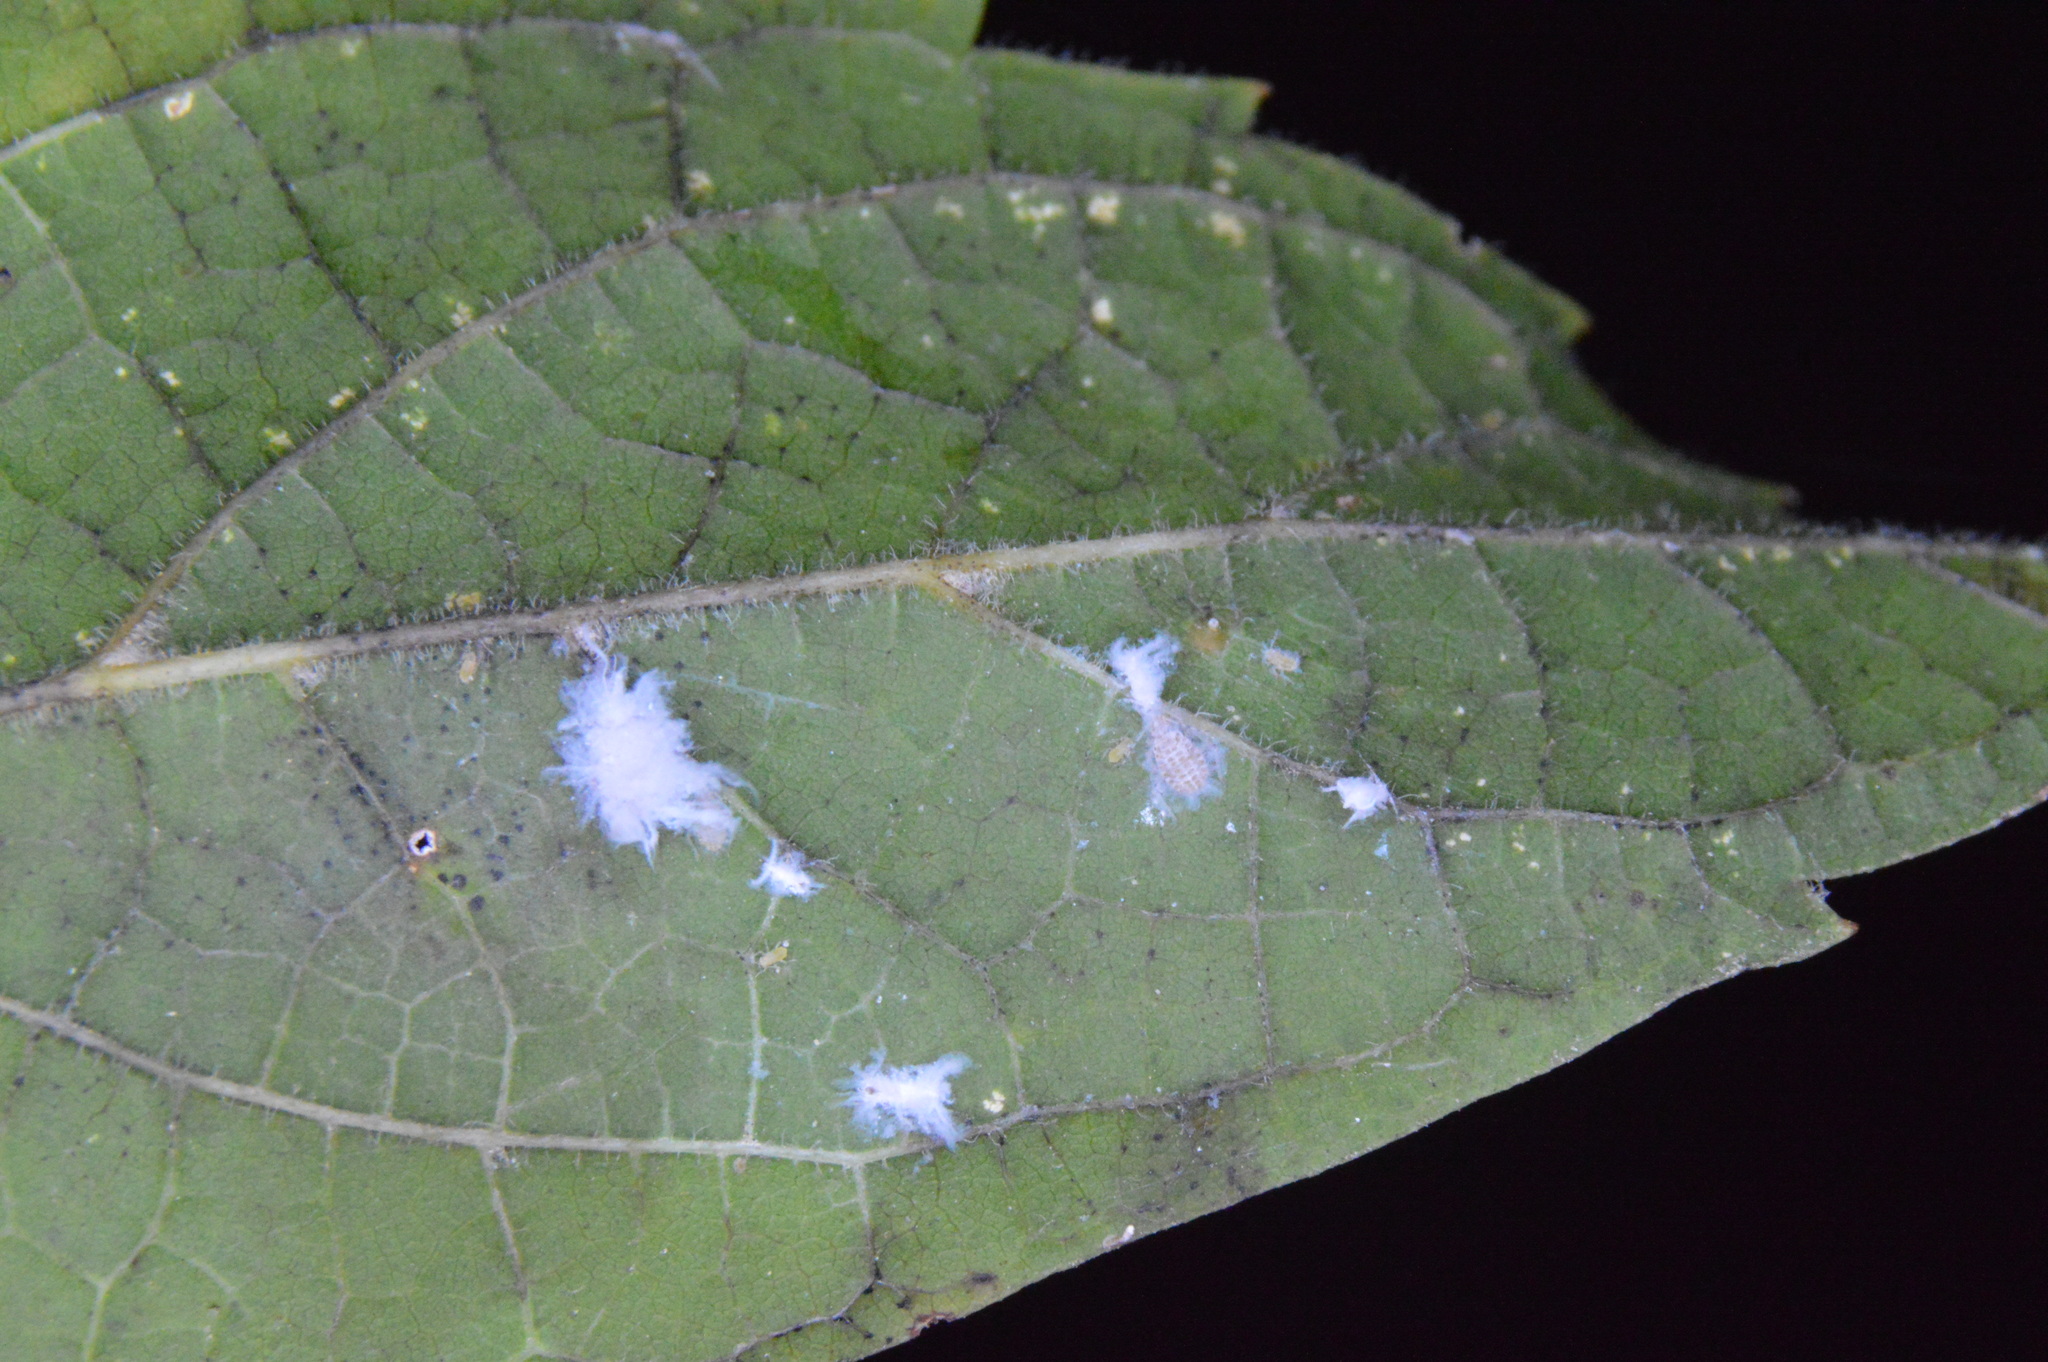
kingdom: Animalia
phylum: Arthropoda
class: Insecta
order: Hemiptera
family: Aphididae
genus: Shivaphis
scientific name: Shivaphis celti
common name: Asian wooly hackberry aphid
